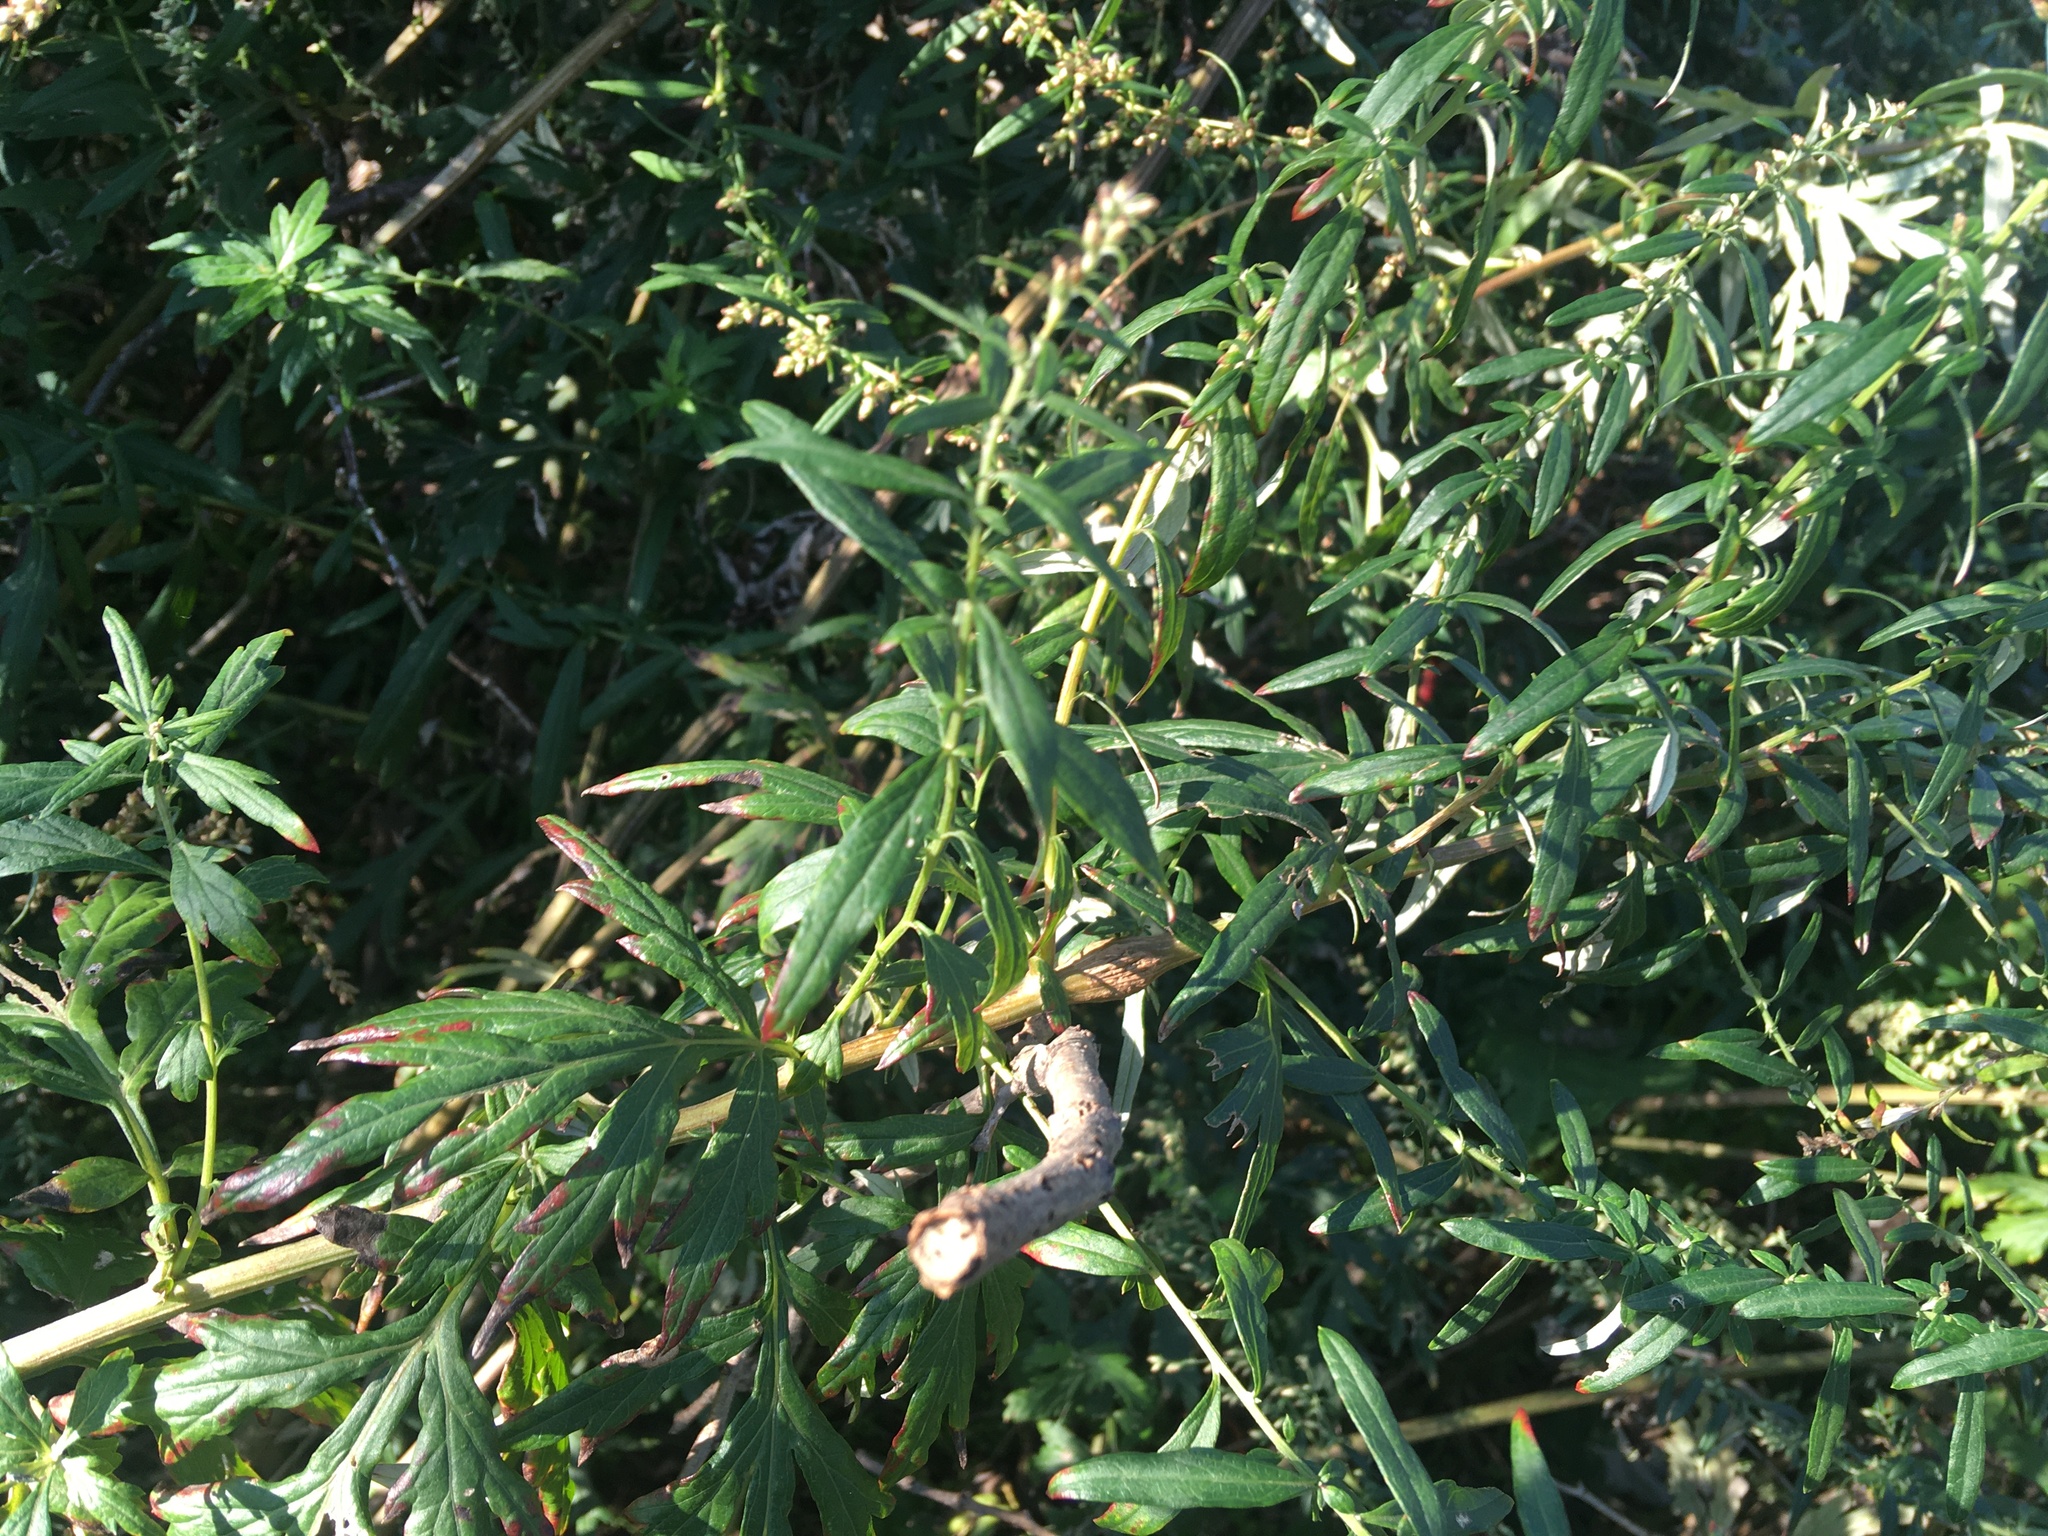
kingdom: Plantae
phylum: Tracheophyta
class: Magnoliopsida
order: Asterales
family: Asteraceae
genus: Artemisia
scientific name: Artemisia vulgaris
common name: Mugwort
